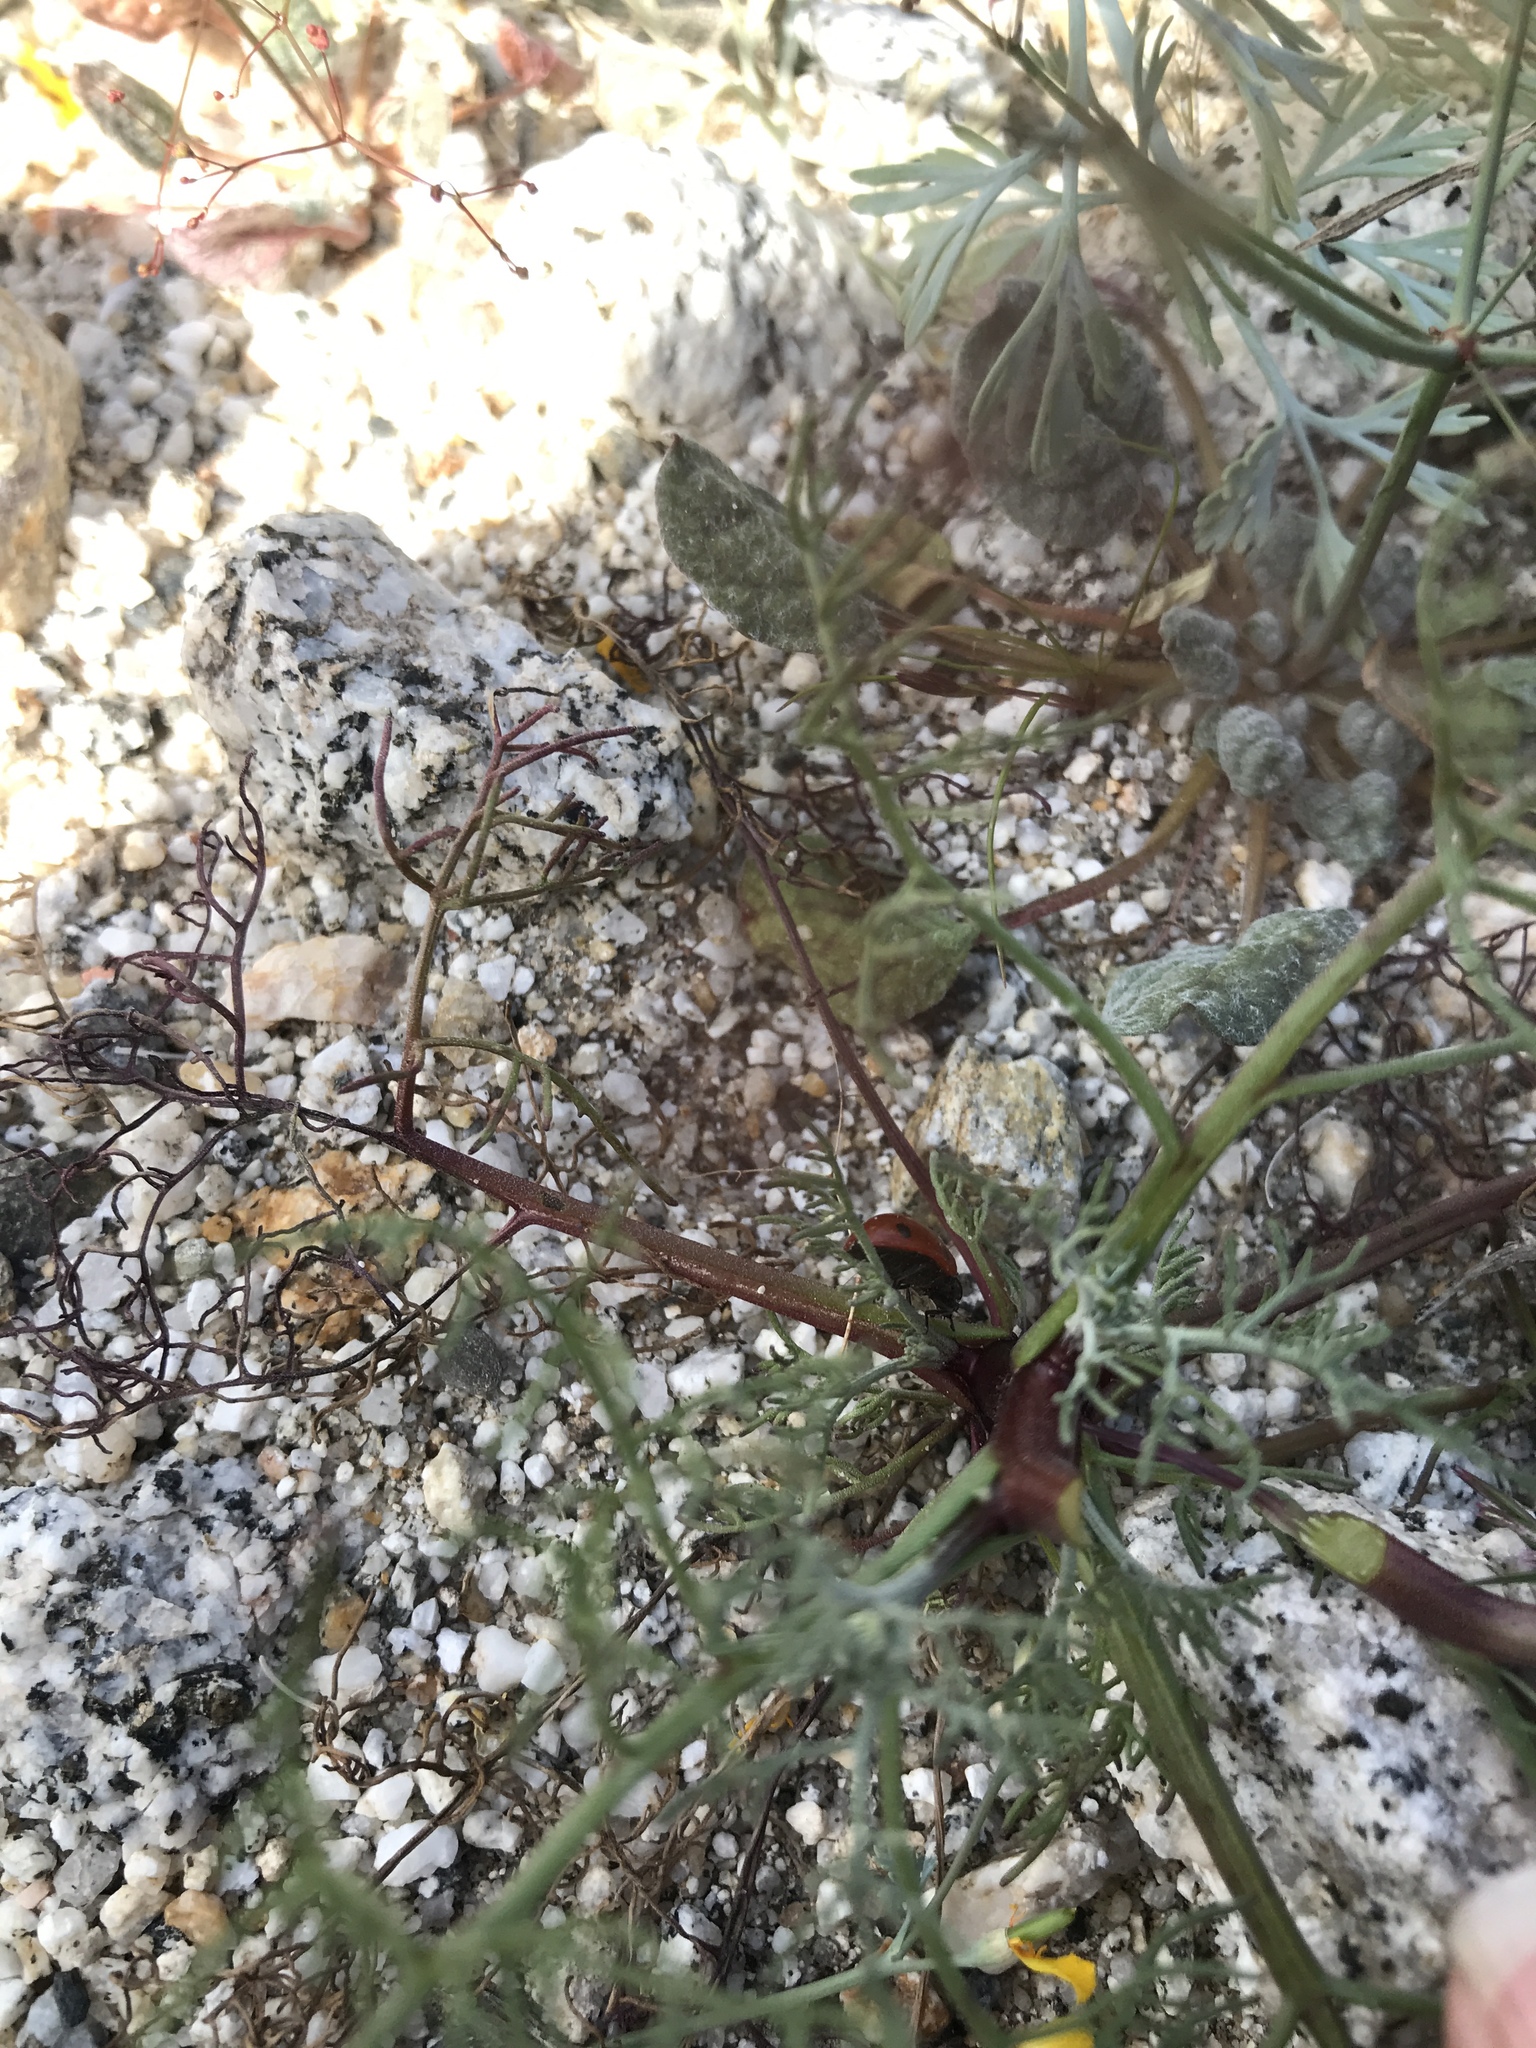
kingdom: Animalia
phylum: Arthropoda
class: Insecta
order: Coleoptera
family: Coccinellidae
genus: Coccinella
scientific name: Coccinella septempunctata
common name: Sevenspotted lady beetle
